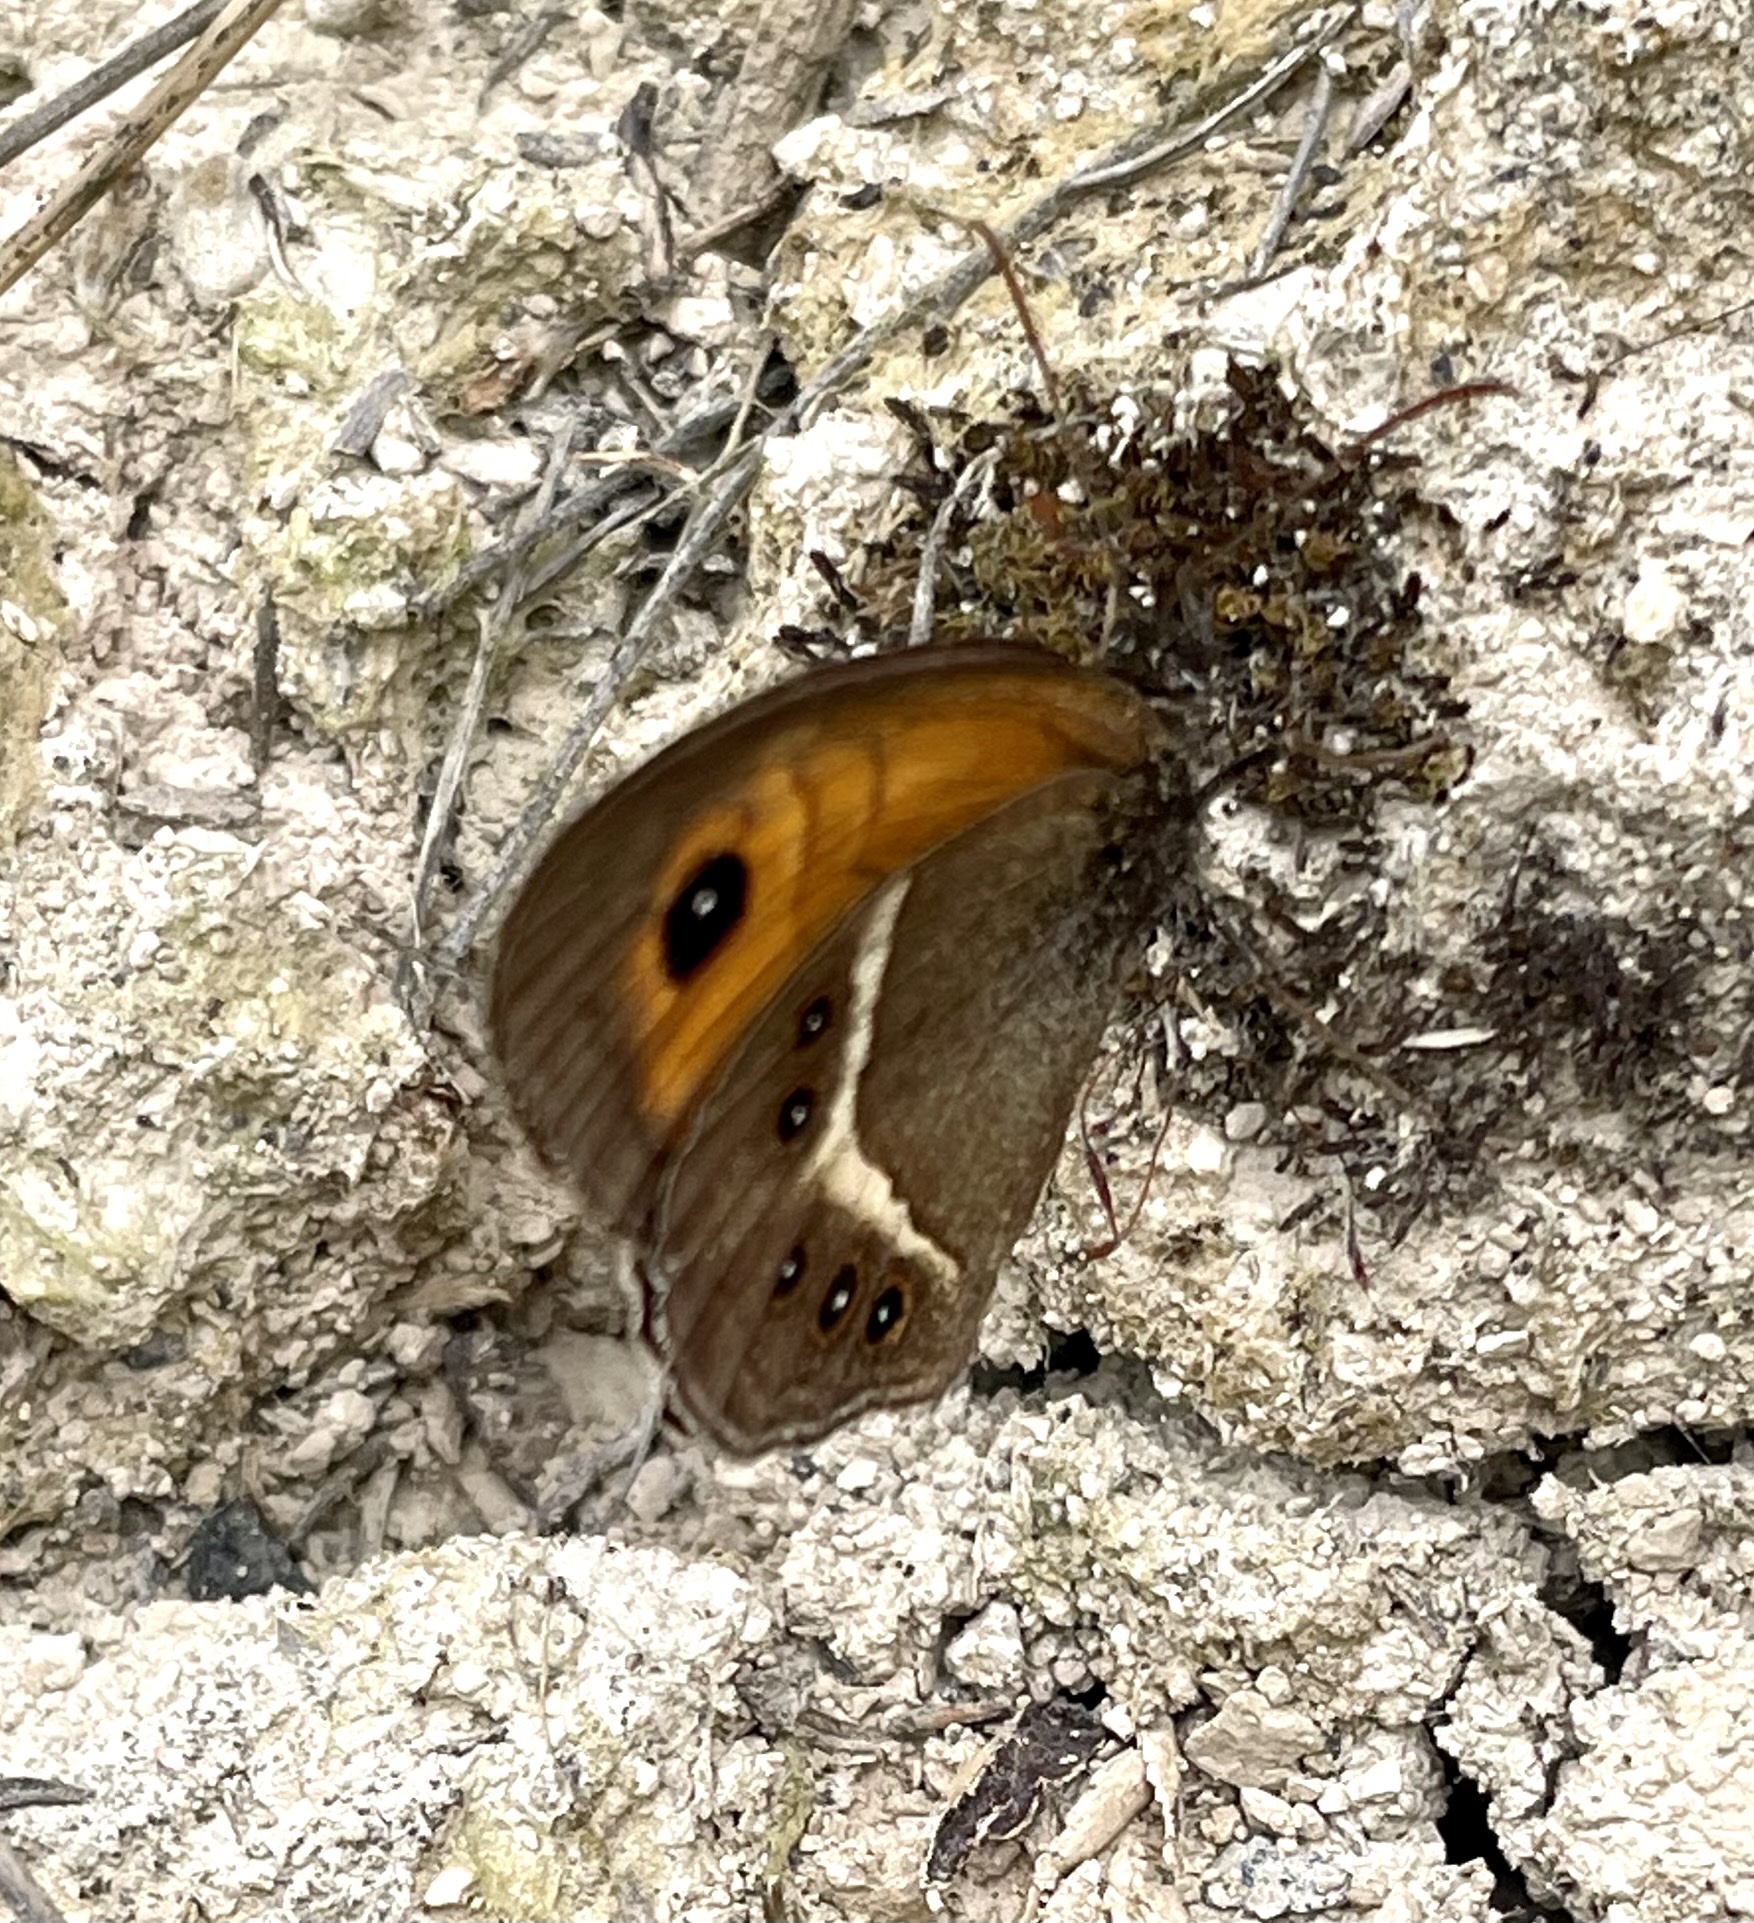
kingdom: Animalia
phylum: Arthropoda
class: Insecta
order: Lepidoptera
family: Nymphalidae
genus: Pyronia
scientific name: Pyronia bathseba
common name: Spanish gatekeeper
